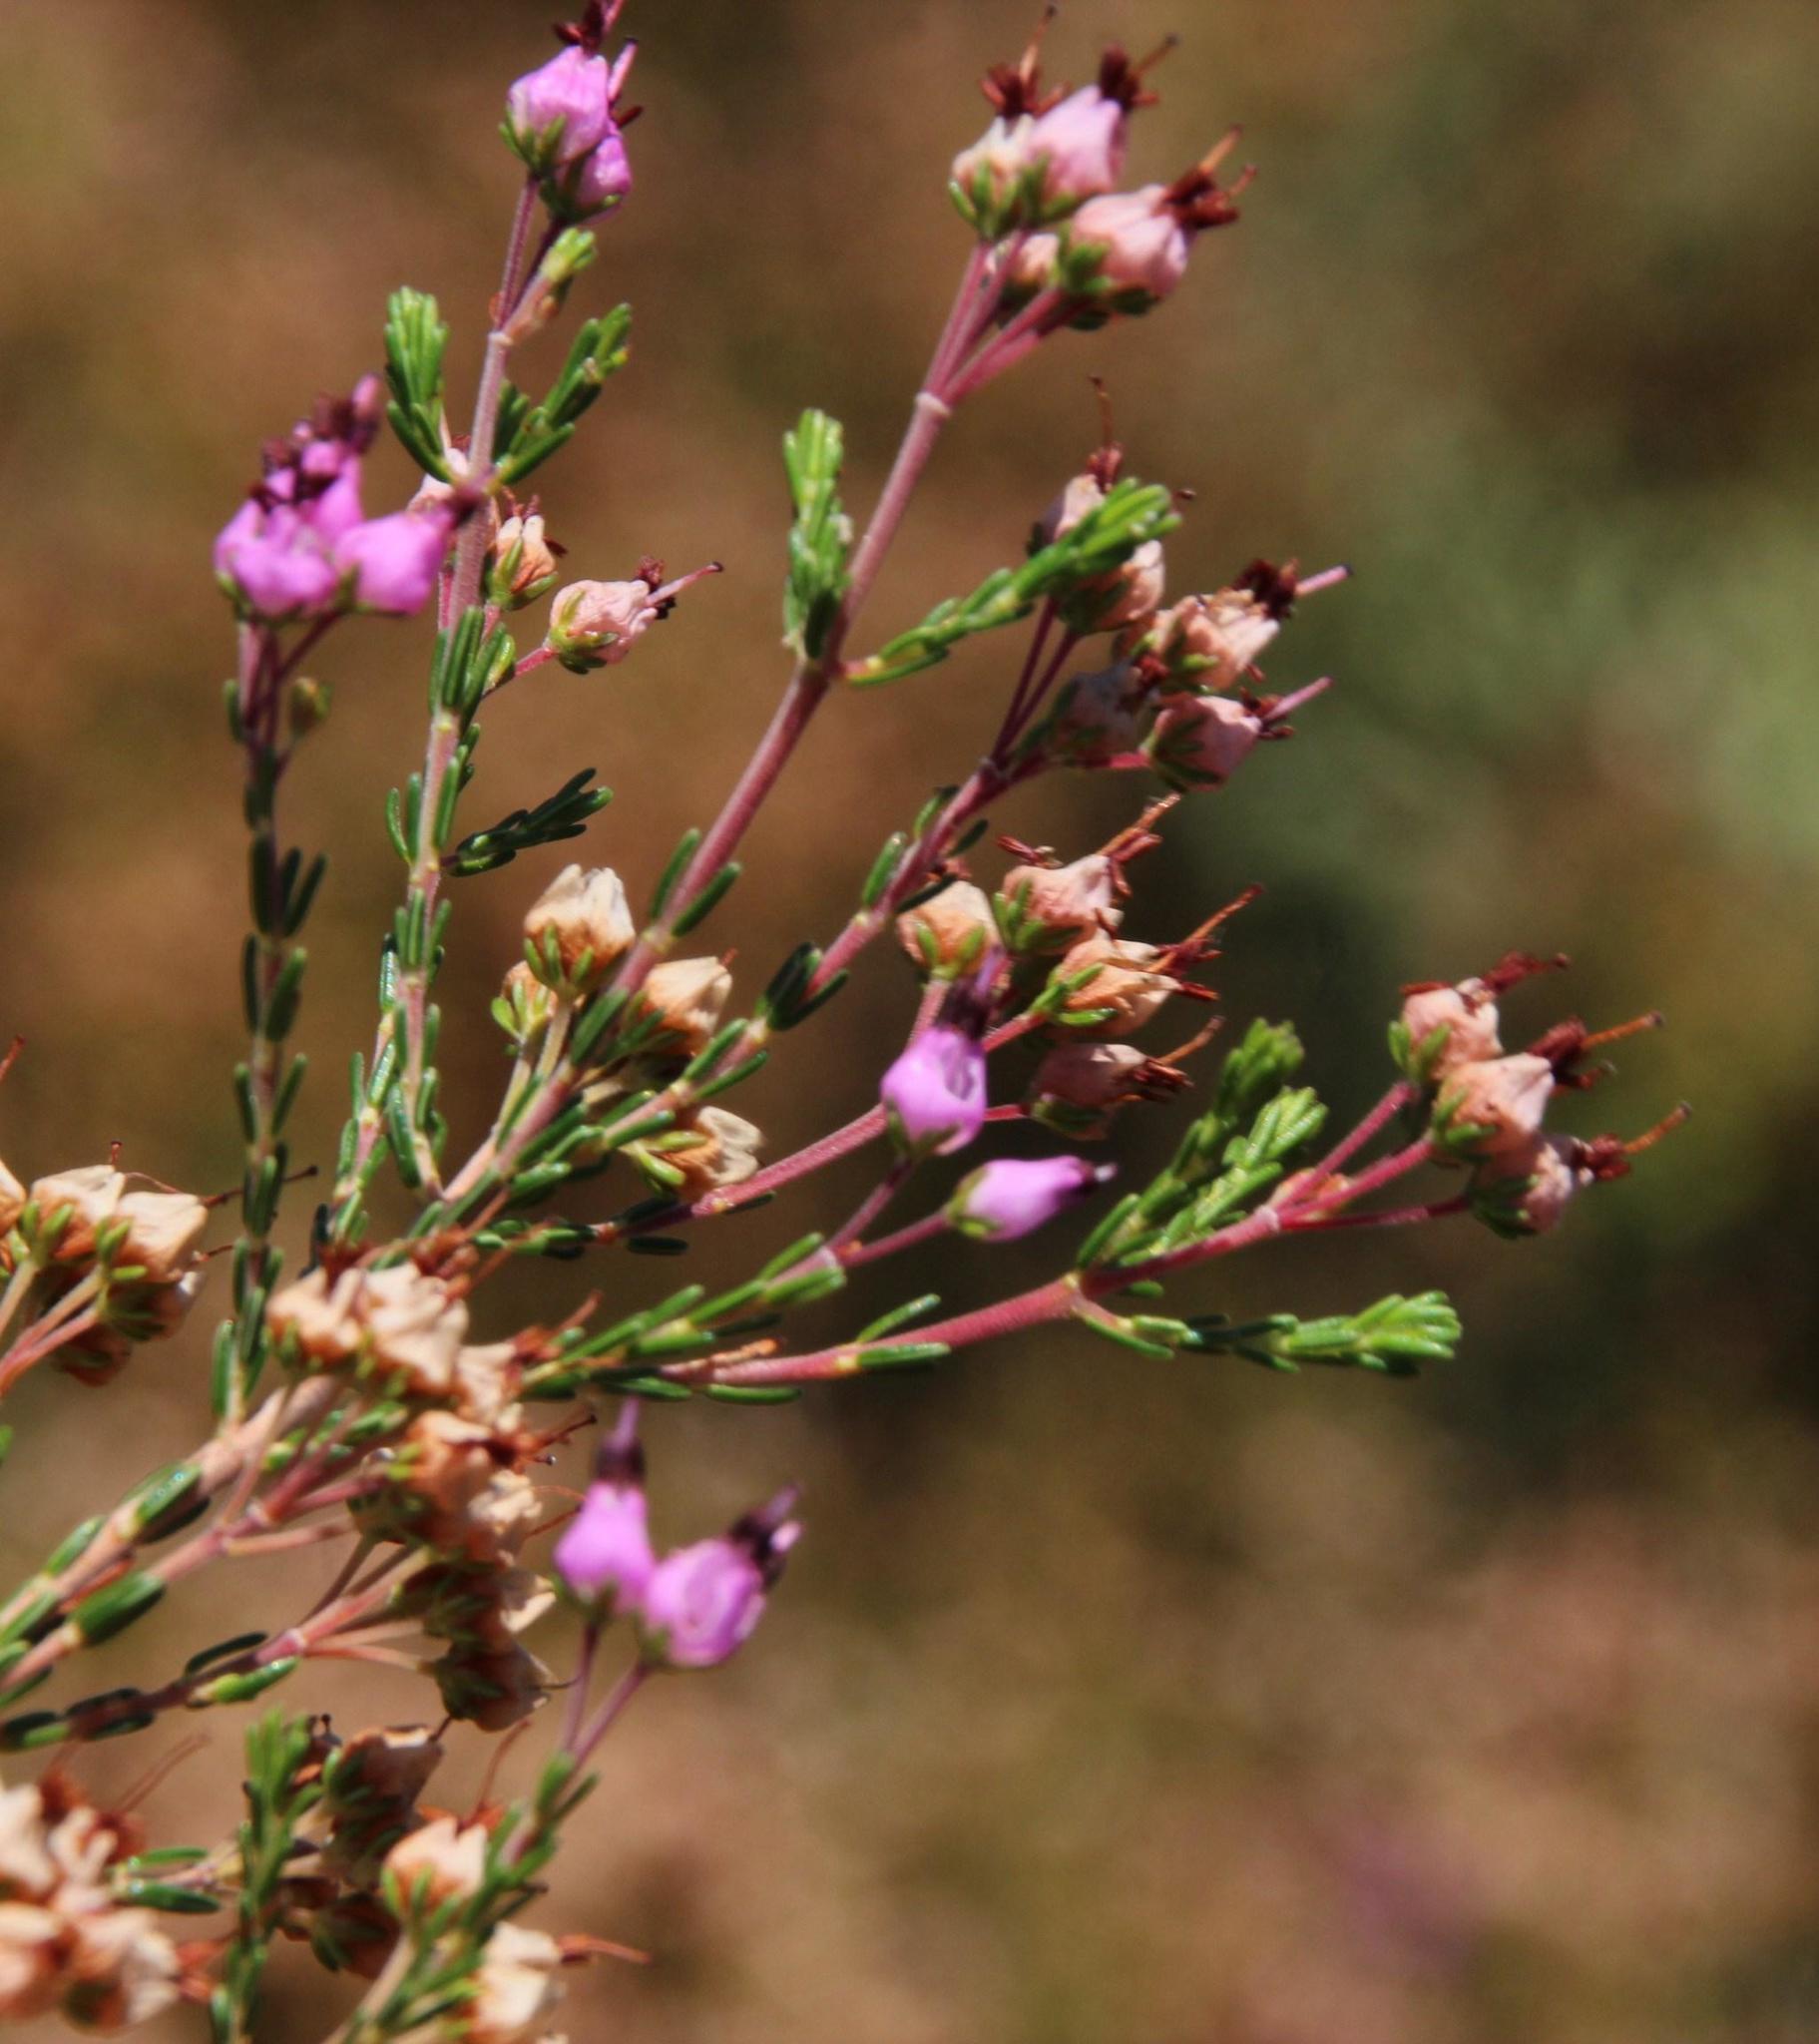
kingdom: Plantae
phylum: Tracheophyta
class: Magnoliopsida
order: Ericales
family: Ericaceae
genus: Erica
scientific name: Erica umbellata
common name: Dwarf spanish heath
